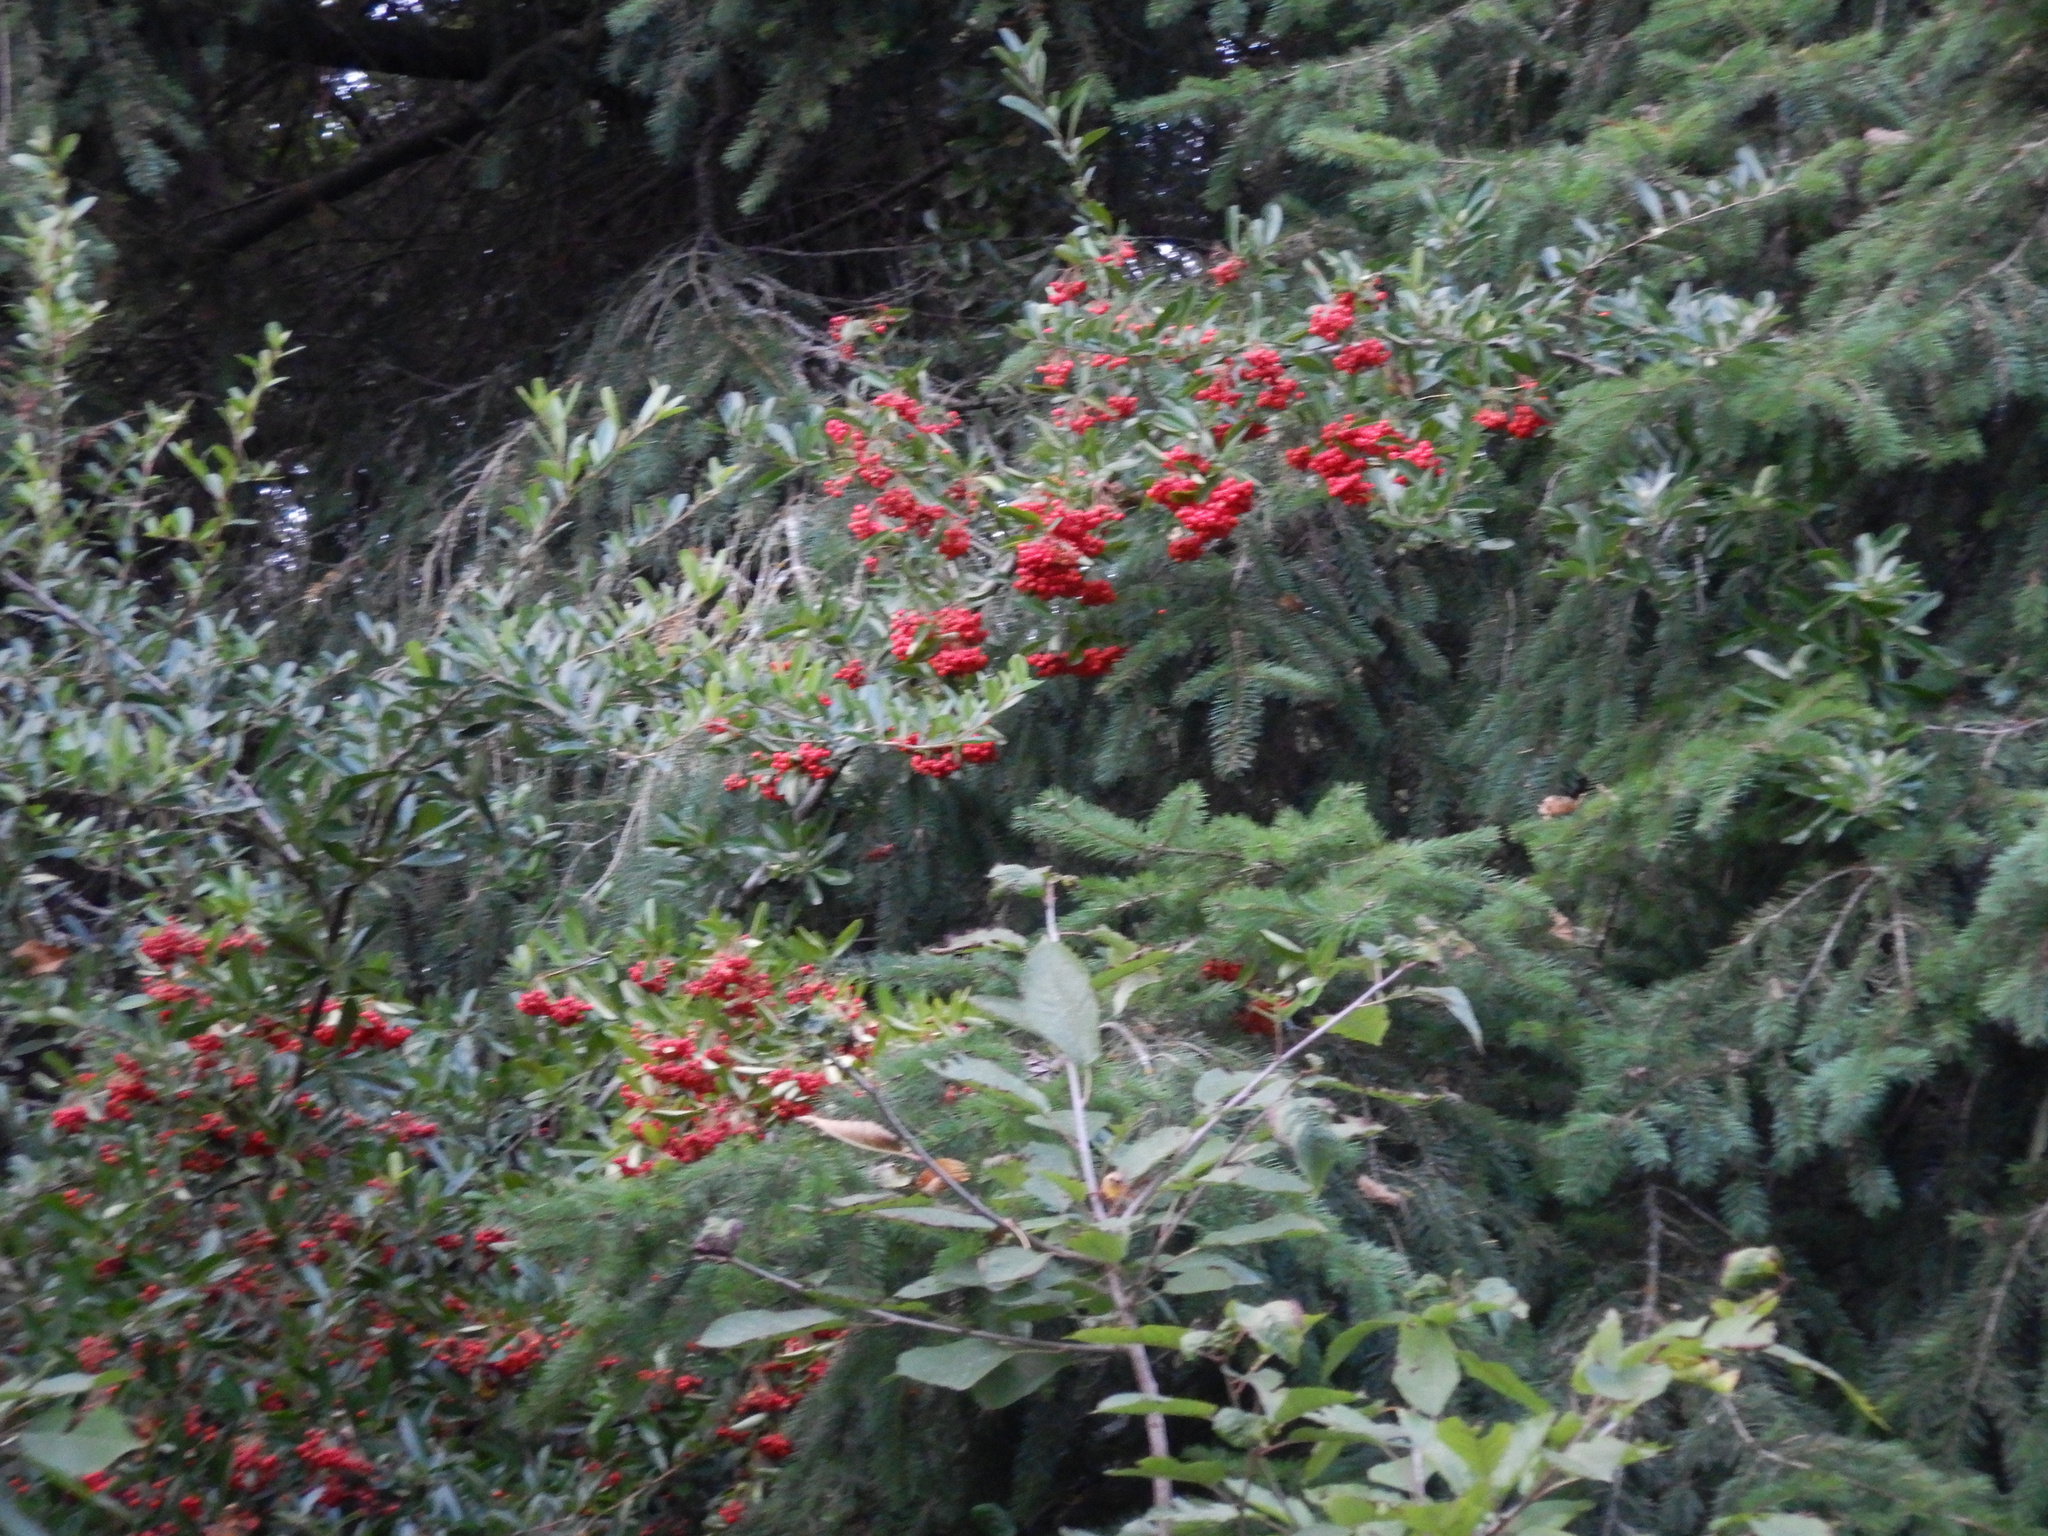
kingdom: Plantae
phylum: Tracheophyta
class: Magnoliopsida
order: Rosales
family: Rosaceae
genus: Pyracantha
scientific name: Pyracantha coccinea
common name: Firethorn
